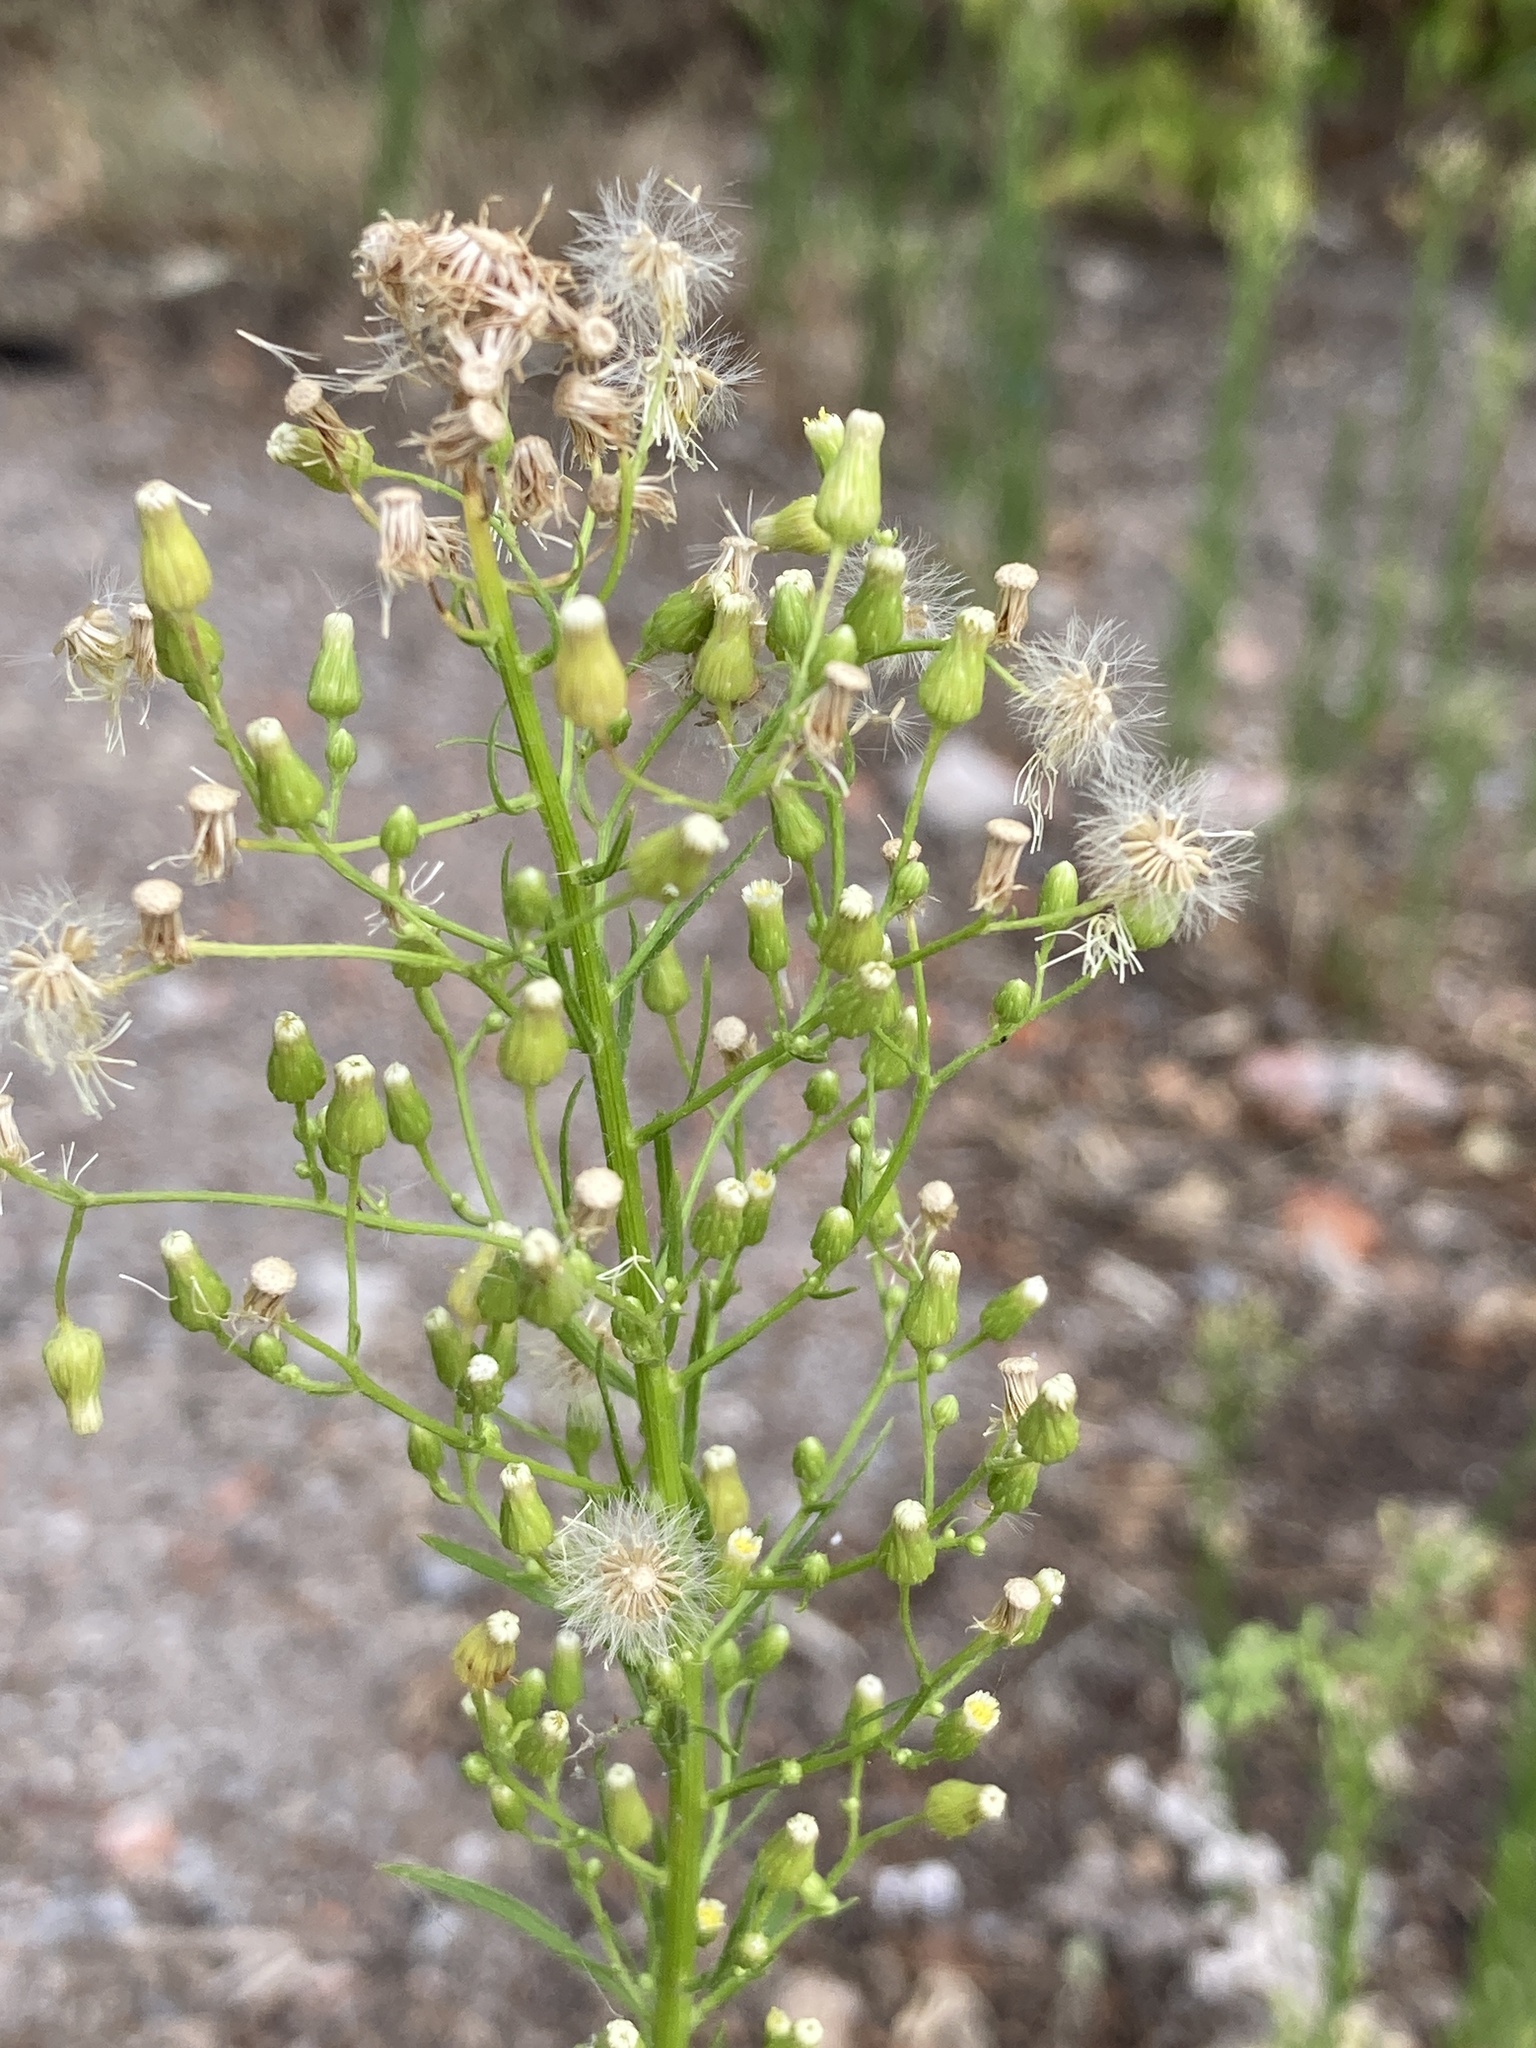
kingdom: Plantae
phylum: Tracheophyta
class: Magnoliopsida
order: Asterales
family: Asteraceae
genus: Erigeron
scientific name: Erigeron canadensis
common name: Canadian fleabane
